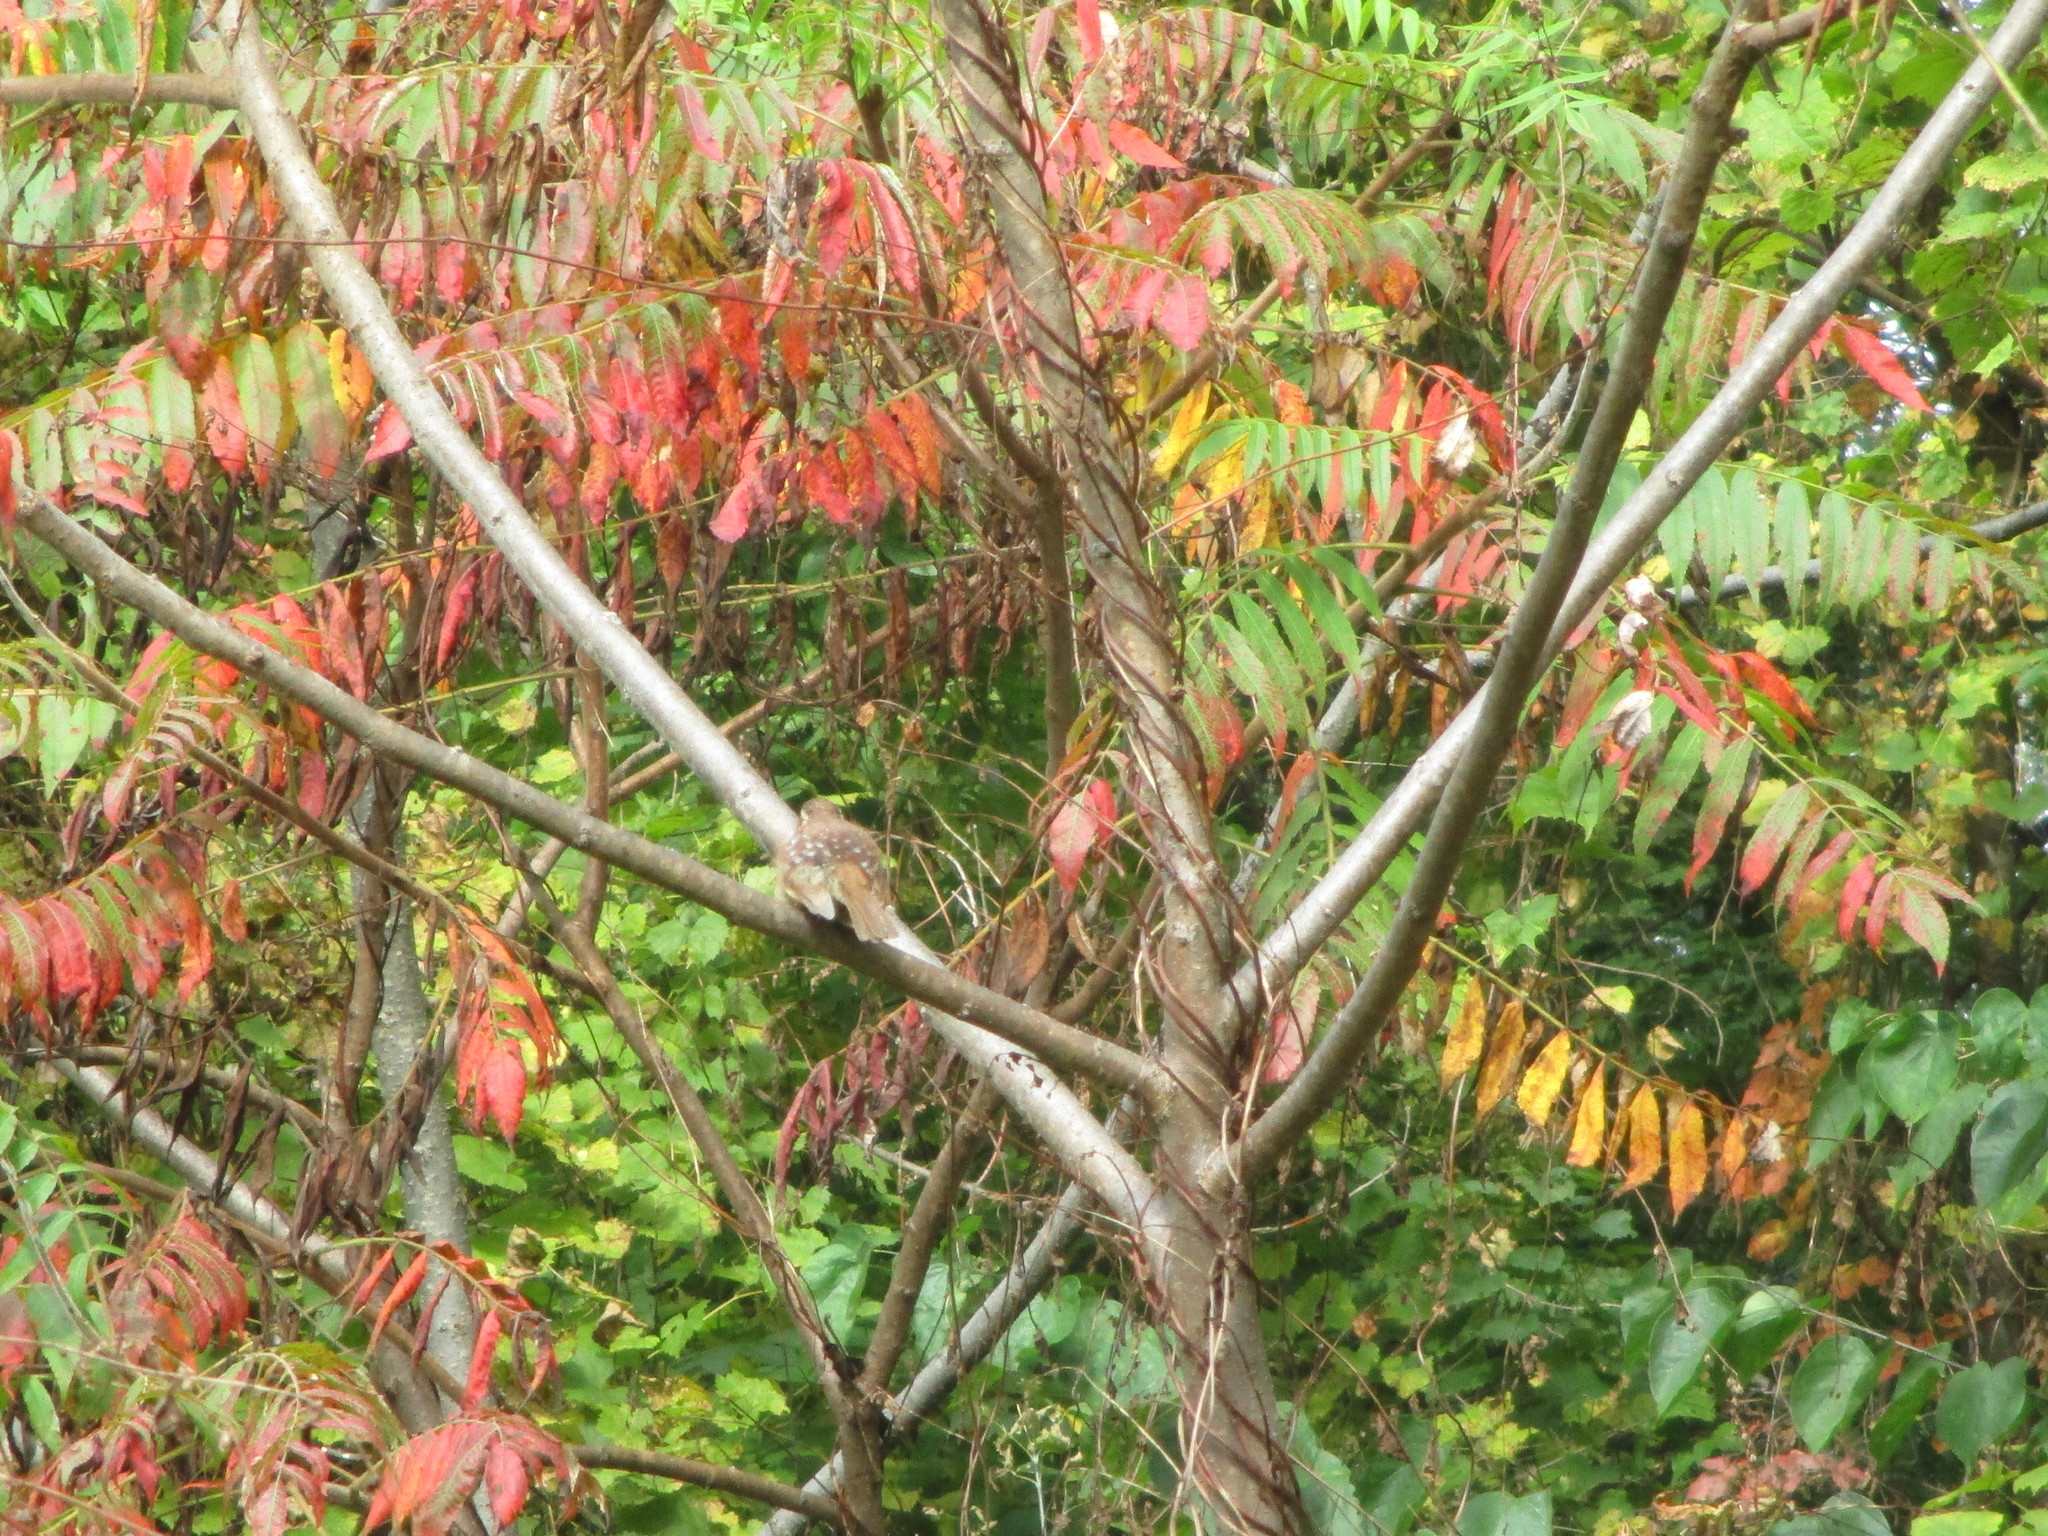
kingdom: Animalia
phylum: Chordata
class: Aves
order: Passeriformes
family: Troglodytidae
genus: Thryothorus
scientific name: Thryothorus ludovicianus
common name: Carolina wren
